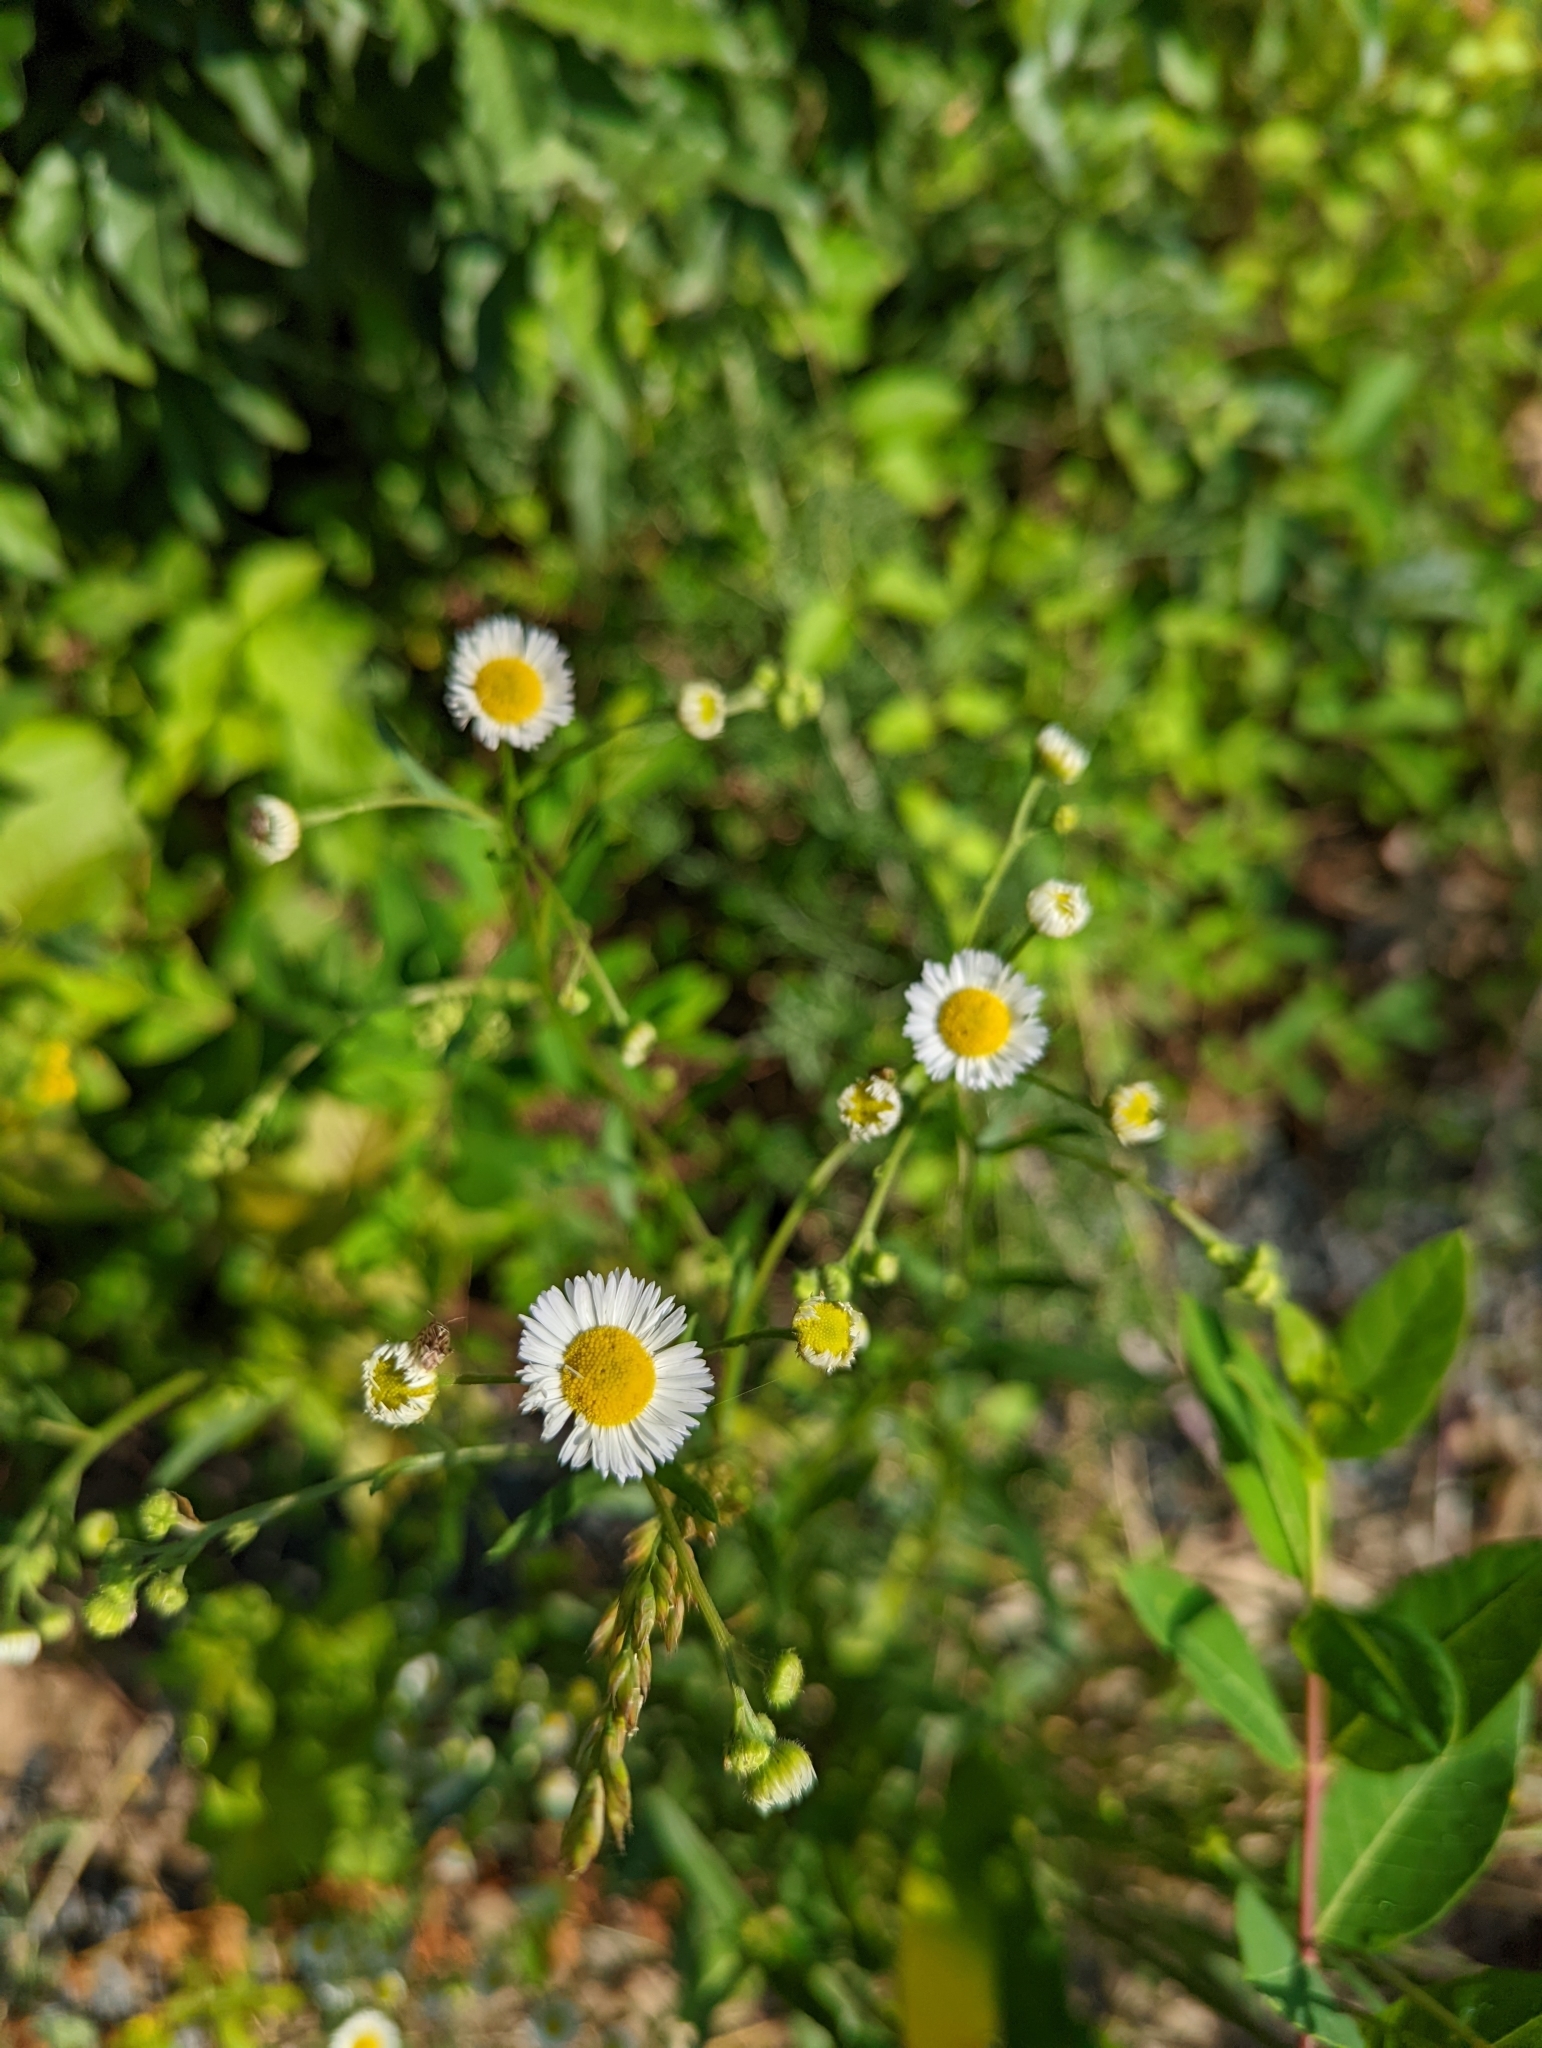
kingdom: Plantae
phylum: Tracheophyta
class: Magnoliopsida
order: Asterales
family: Asteraceae
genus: Erigeron
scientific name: Erigeron strigosus
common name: Common eastern fleabane
